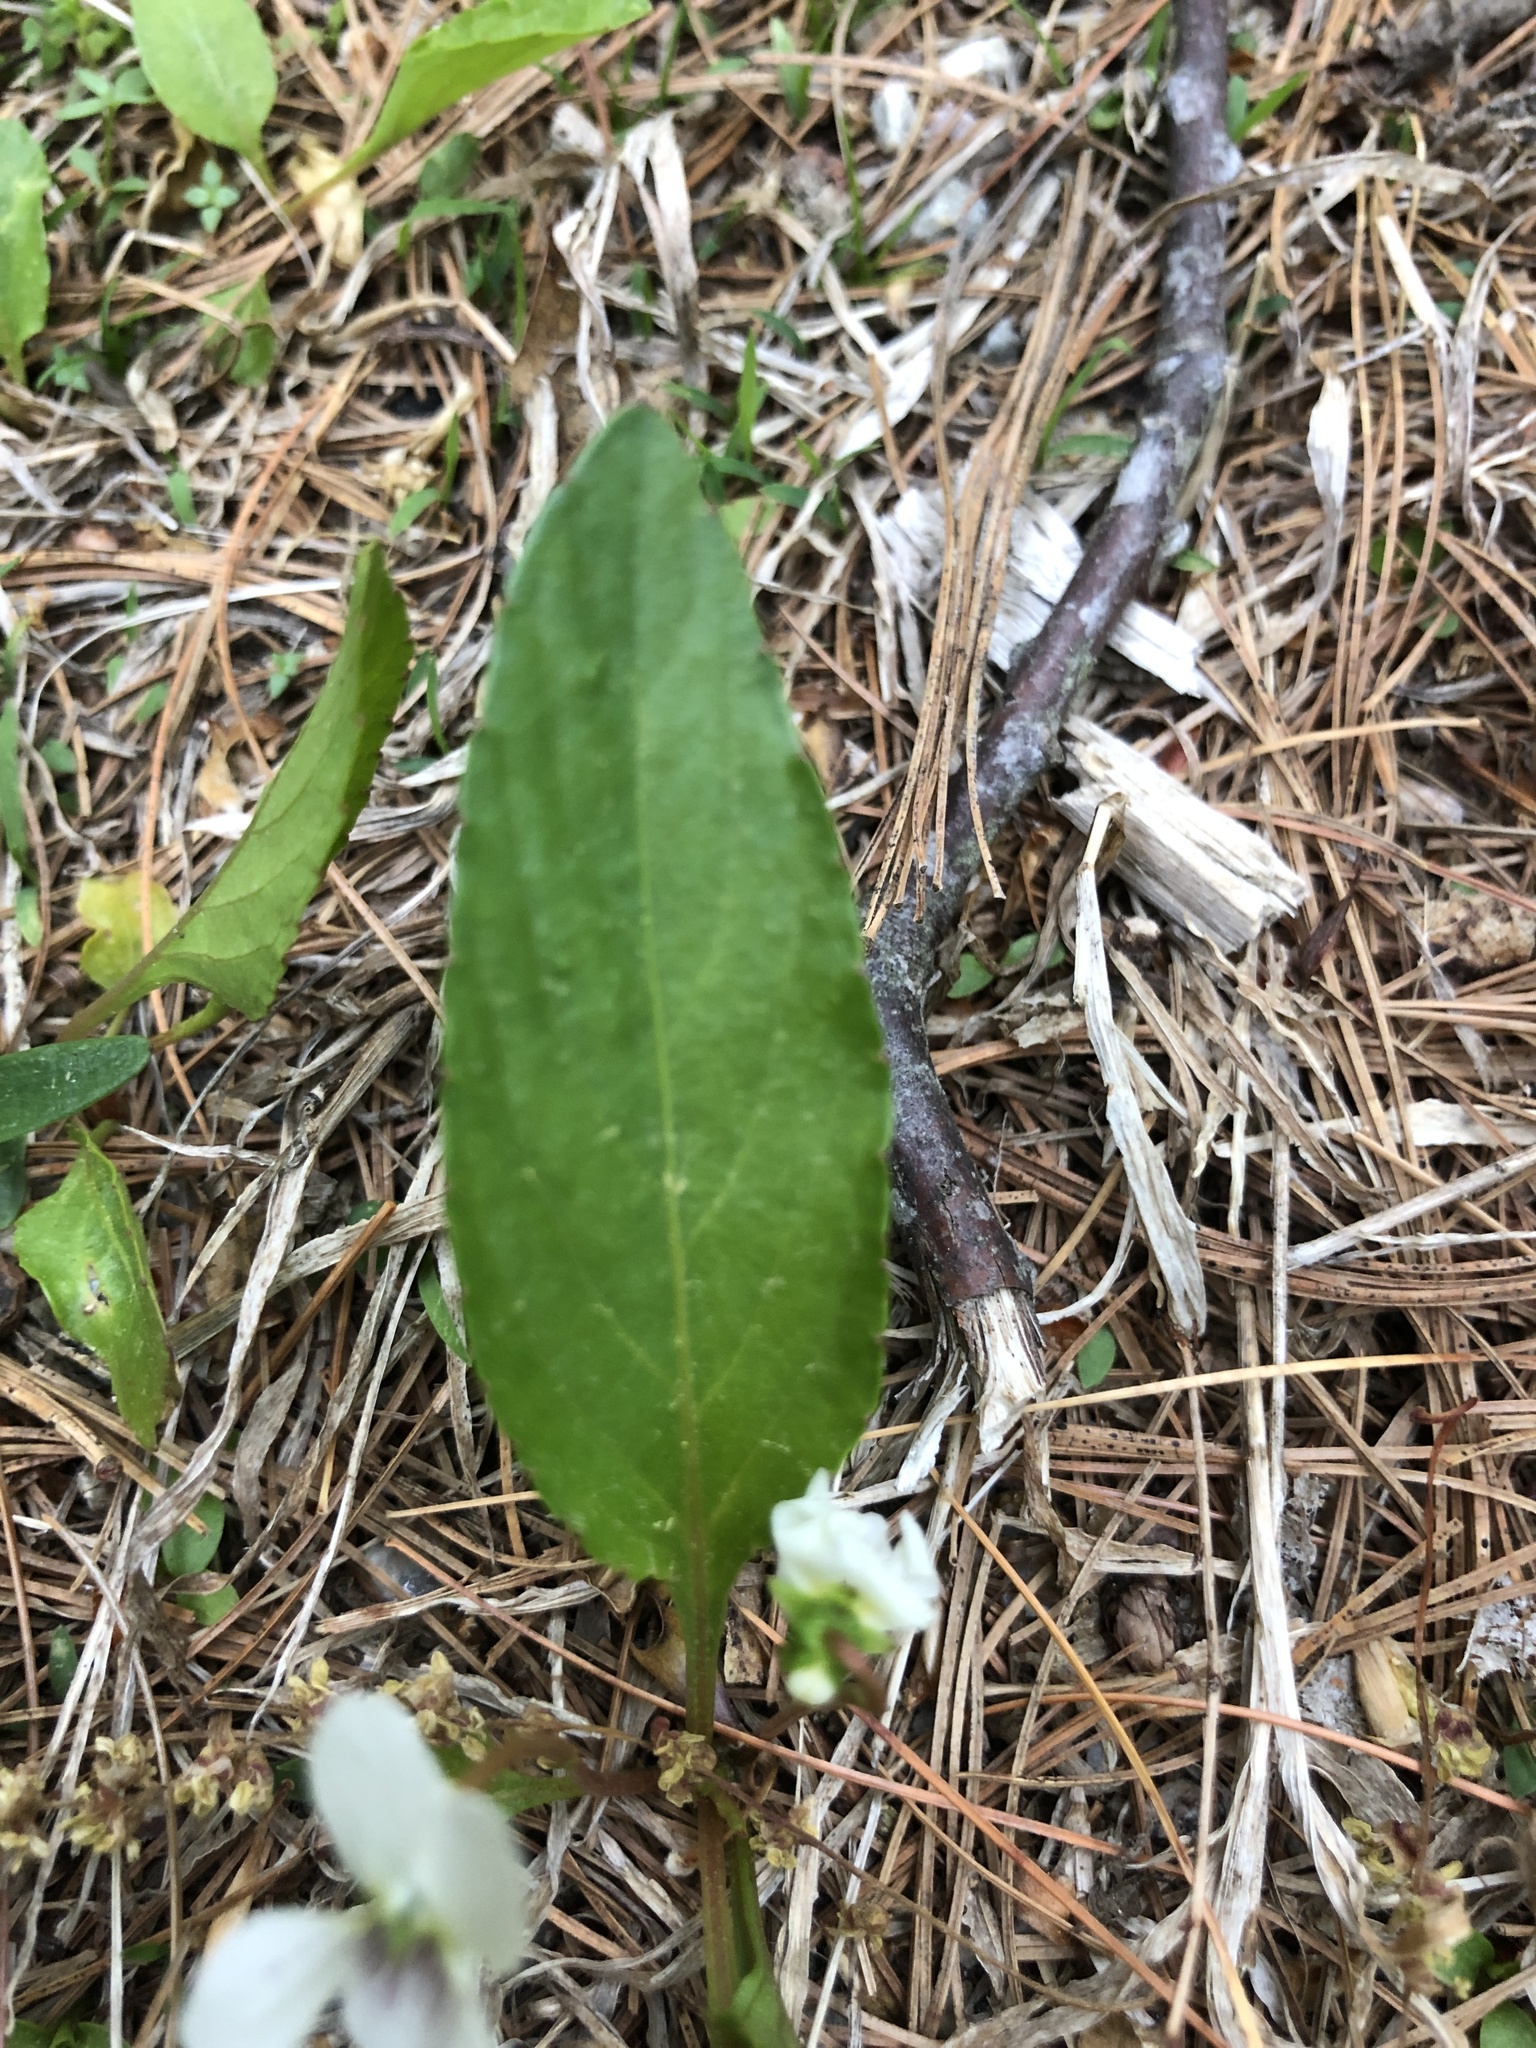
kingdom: Plantae
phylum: Tracheophyta
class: Magnoliopsida
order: Malpighiales
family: Violaceae
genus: Viola
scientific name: Viola primulifolia
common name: Primrose-leaf violet
